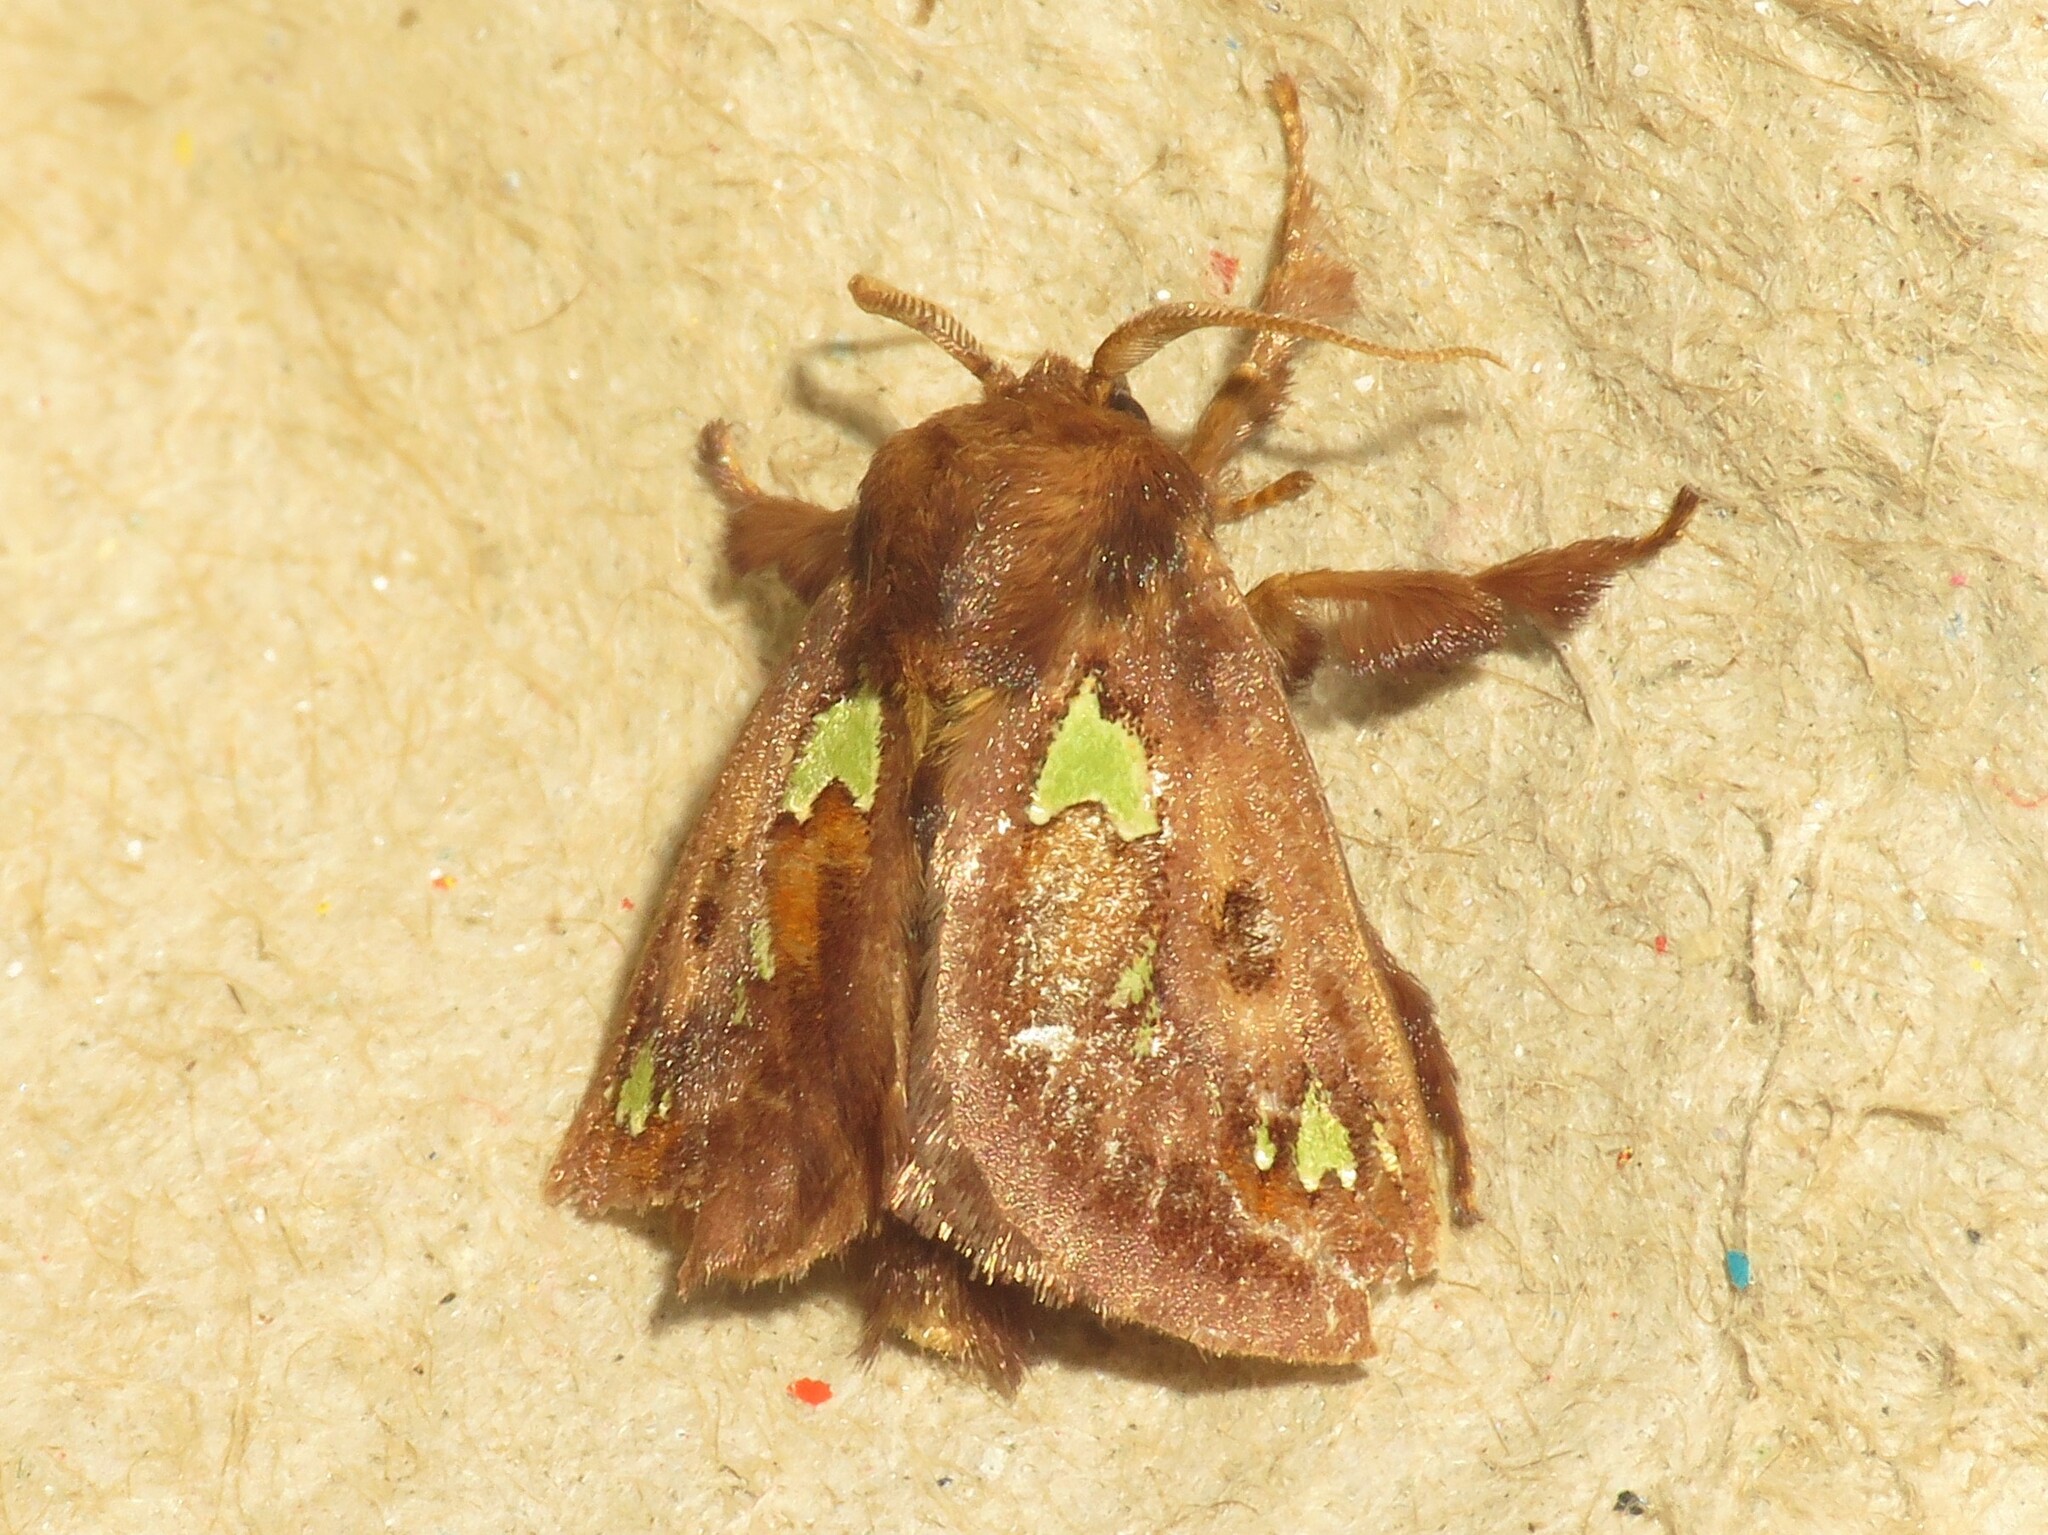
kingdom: Animalia
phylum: Arthropoda
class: Insecta
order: Lepidoptera
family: Limacodidae
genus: Euclea
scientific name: Euclea delphinii
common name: Spiny oak-slug moth
